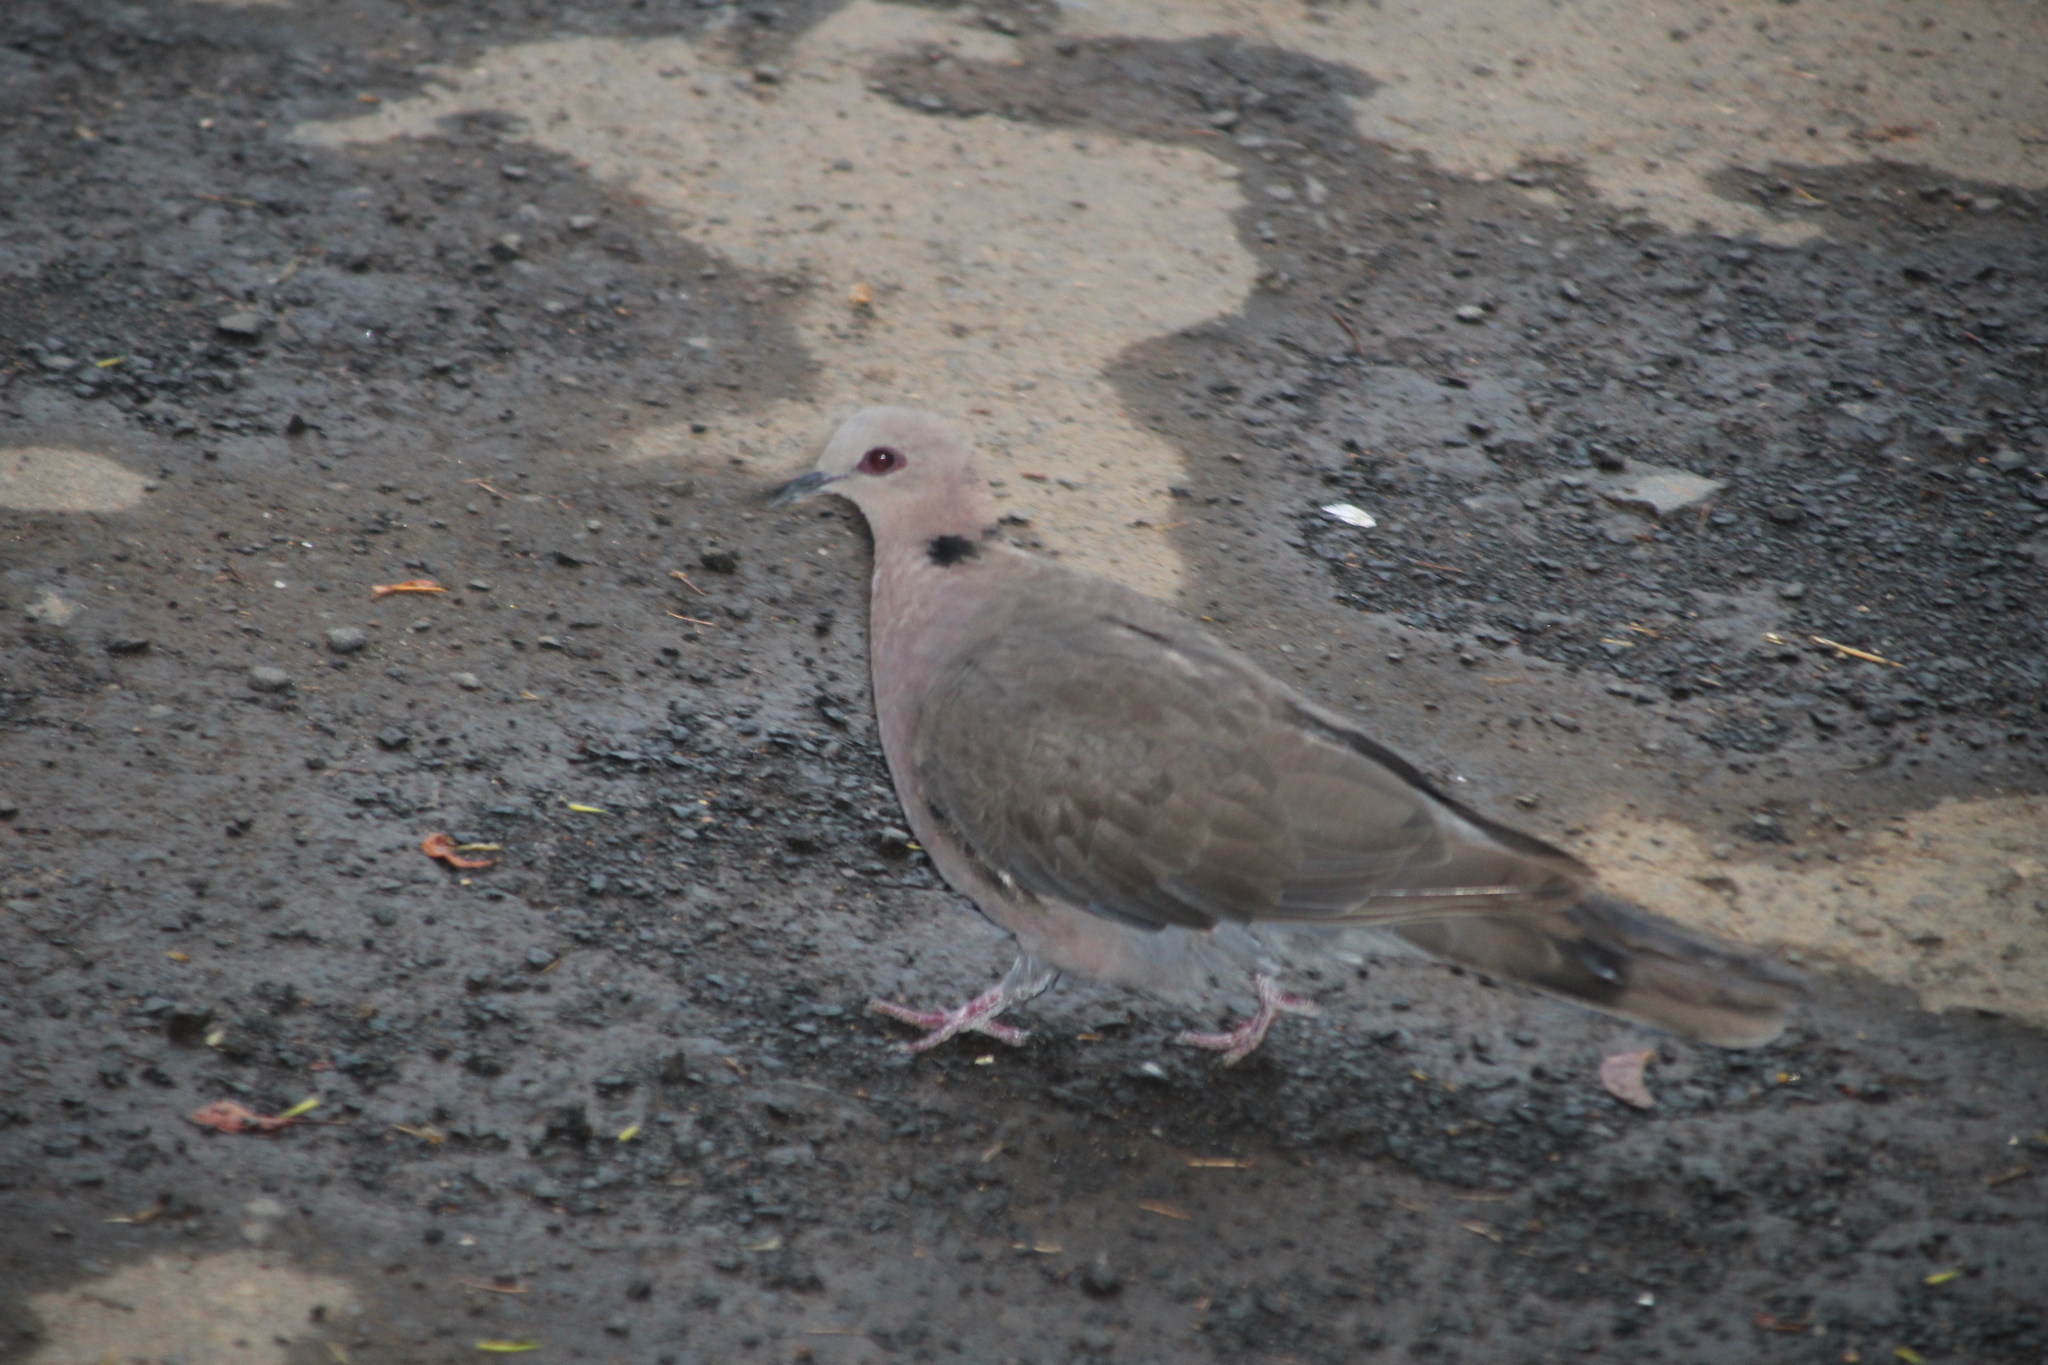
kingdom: Animalia
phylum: Chordata
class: Aves
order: Columbiformes
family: Columbidae
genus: Streptopelia
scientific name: Streptopelia semitorquata
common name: Red-eyed dove
